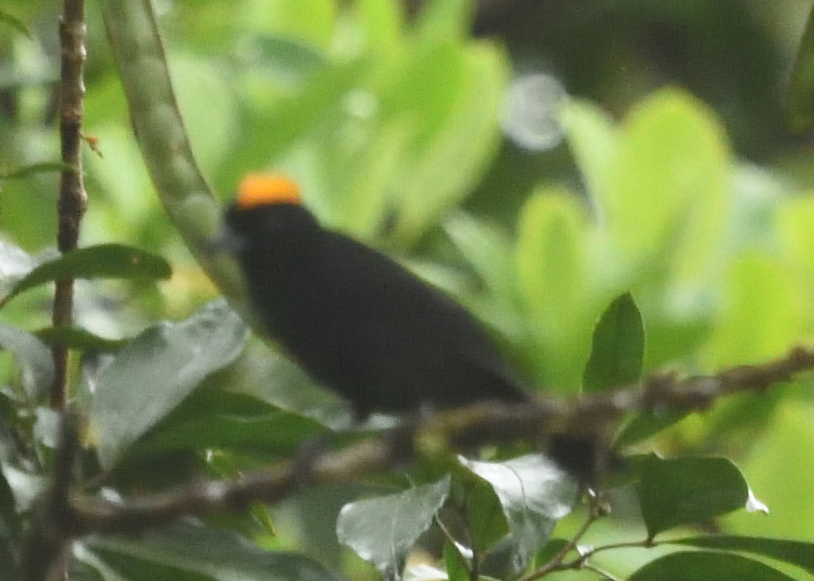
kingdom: Animalia
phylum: Chordata
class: Aves
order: Passeriformes
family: Thraupidae
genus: Tachyphonus
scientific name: Tachyphonus delatrii
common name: Tawny-crested tanager
